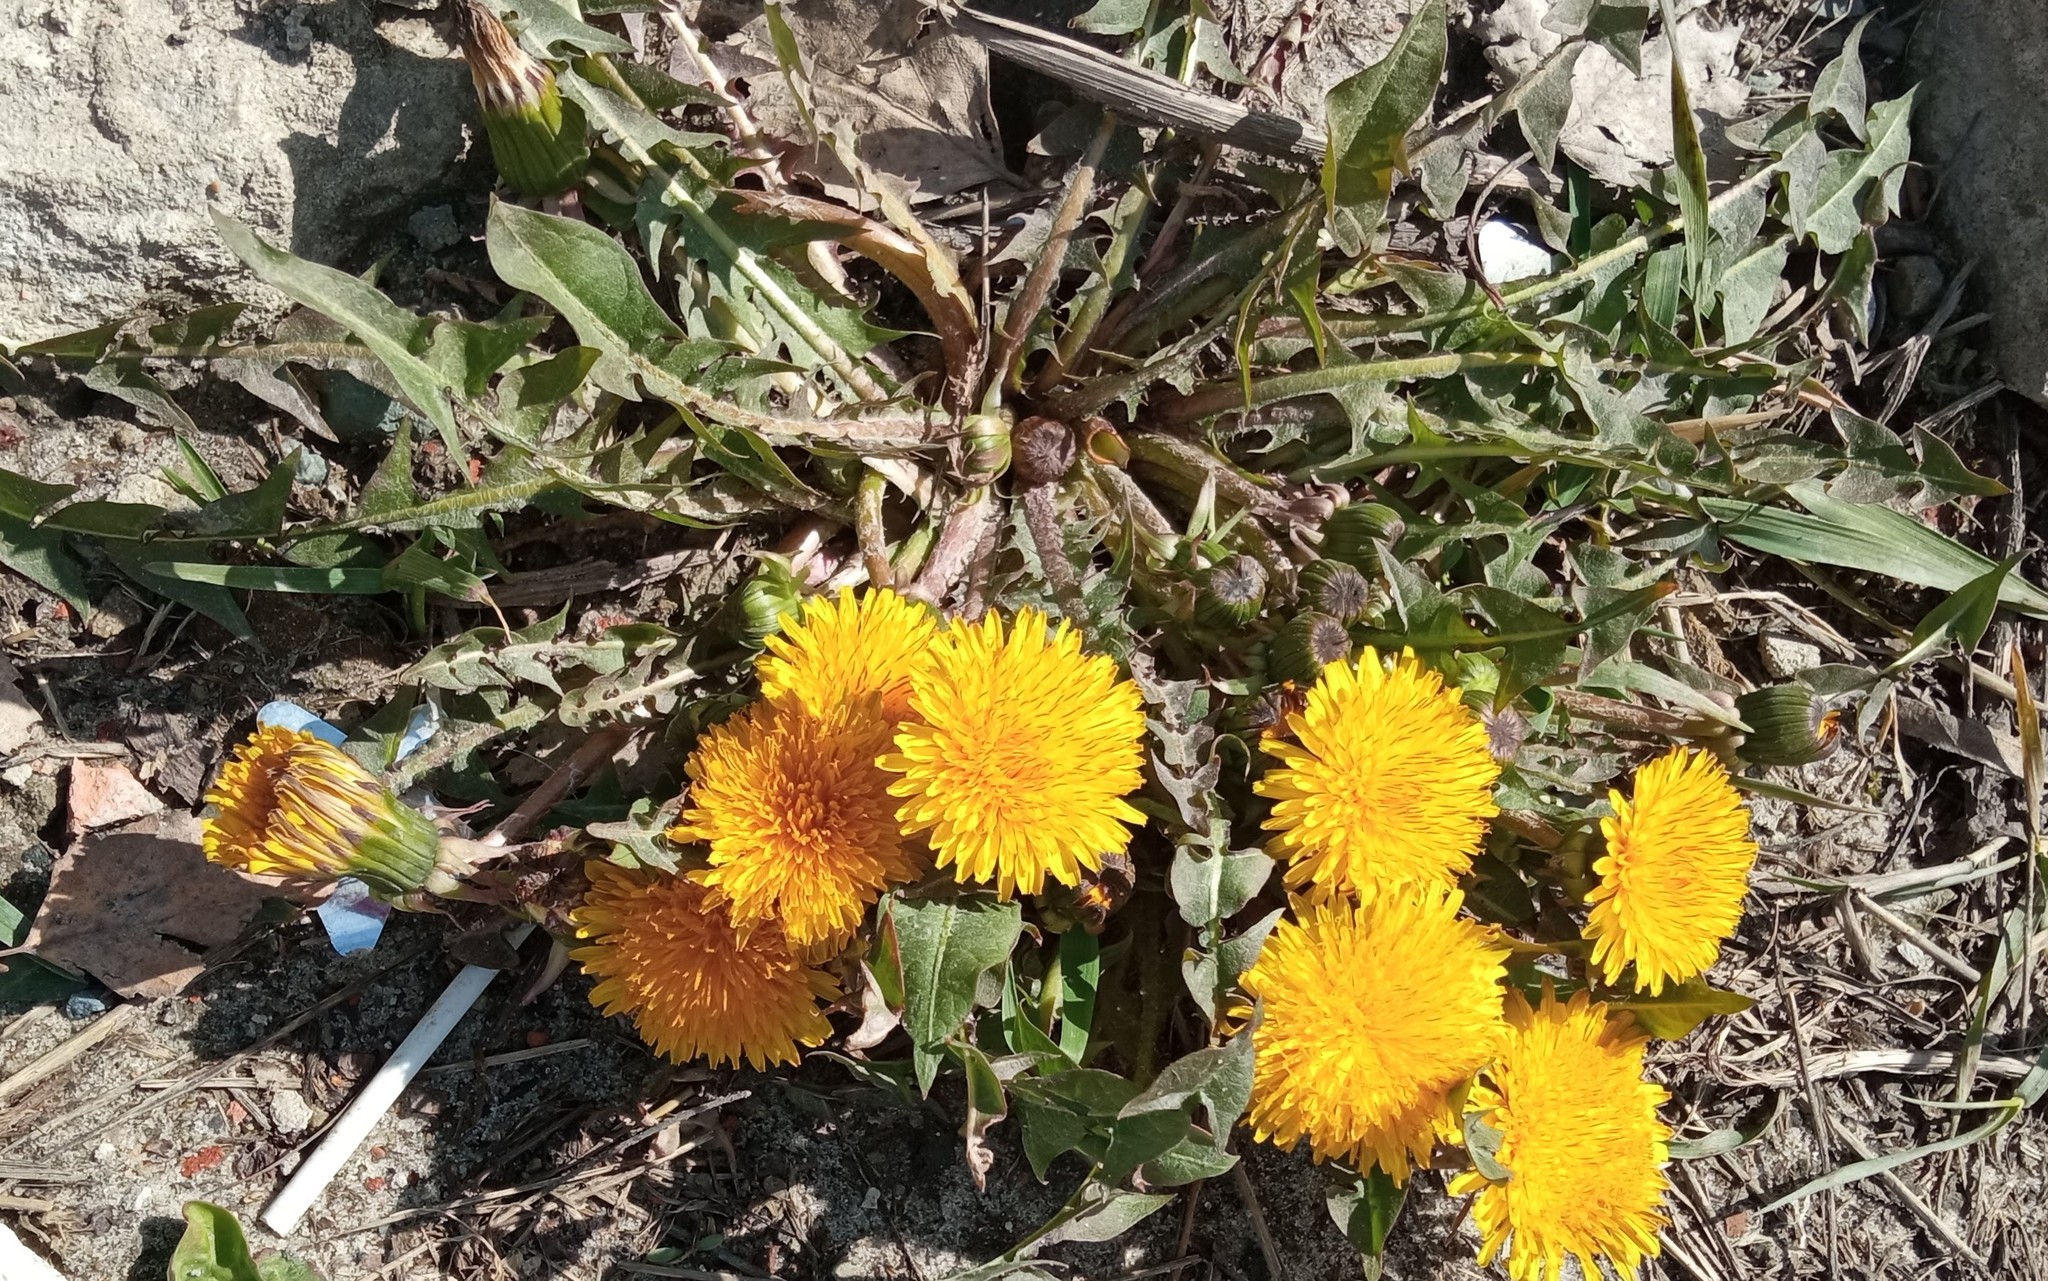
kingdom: Plantae
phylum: Tracheophyta
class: Magnoliopsida
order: Asterales
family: Asteraceae
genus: Taraxacum
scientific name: Taraxacum officinale
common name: Common dandelion
